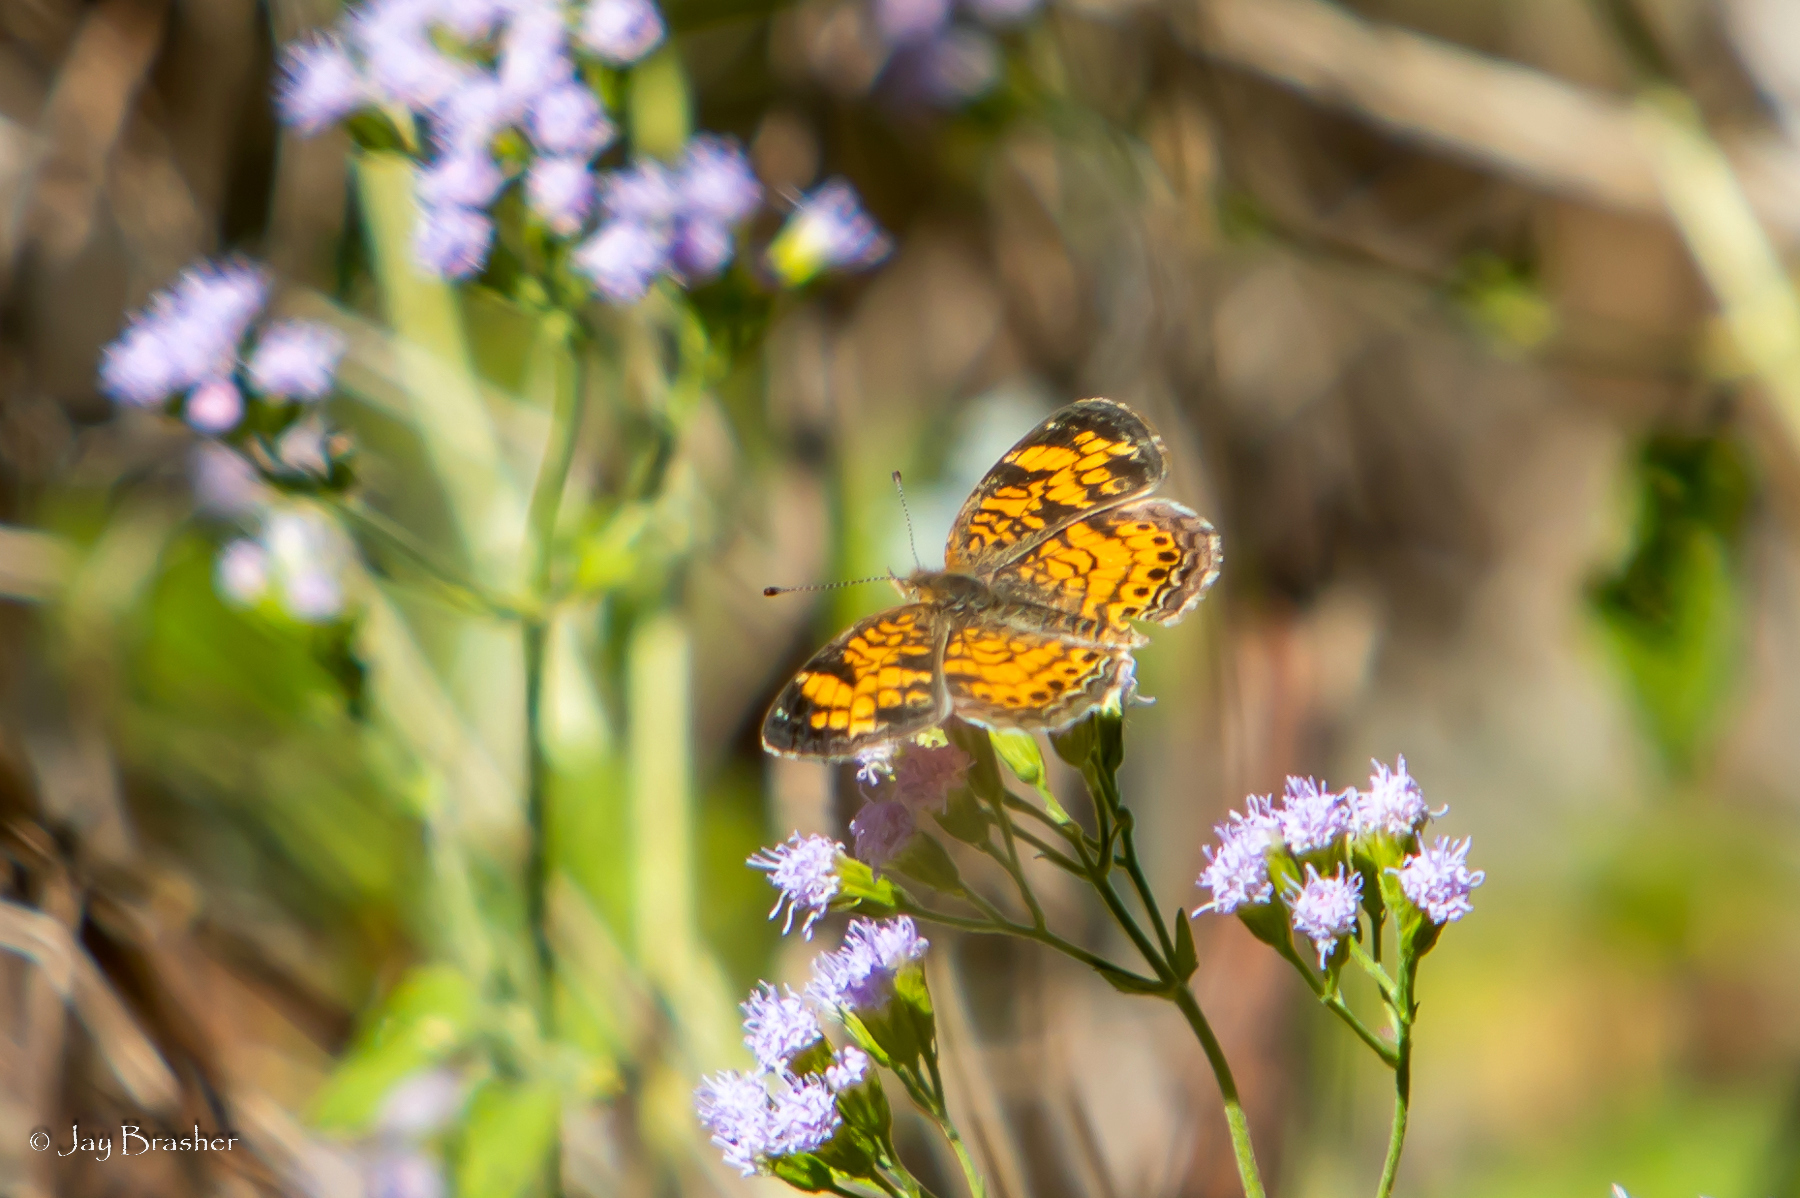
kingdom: Animalia
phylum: Arthropoda
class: Insecta
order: Lepidoptera
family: Nymphalidae
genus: Phyciodes
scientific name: Phyciodes tharos
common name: Pearl crescent
